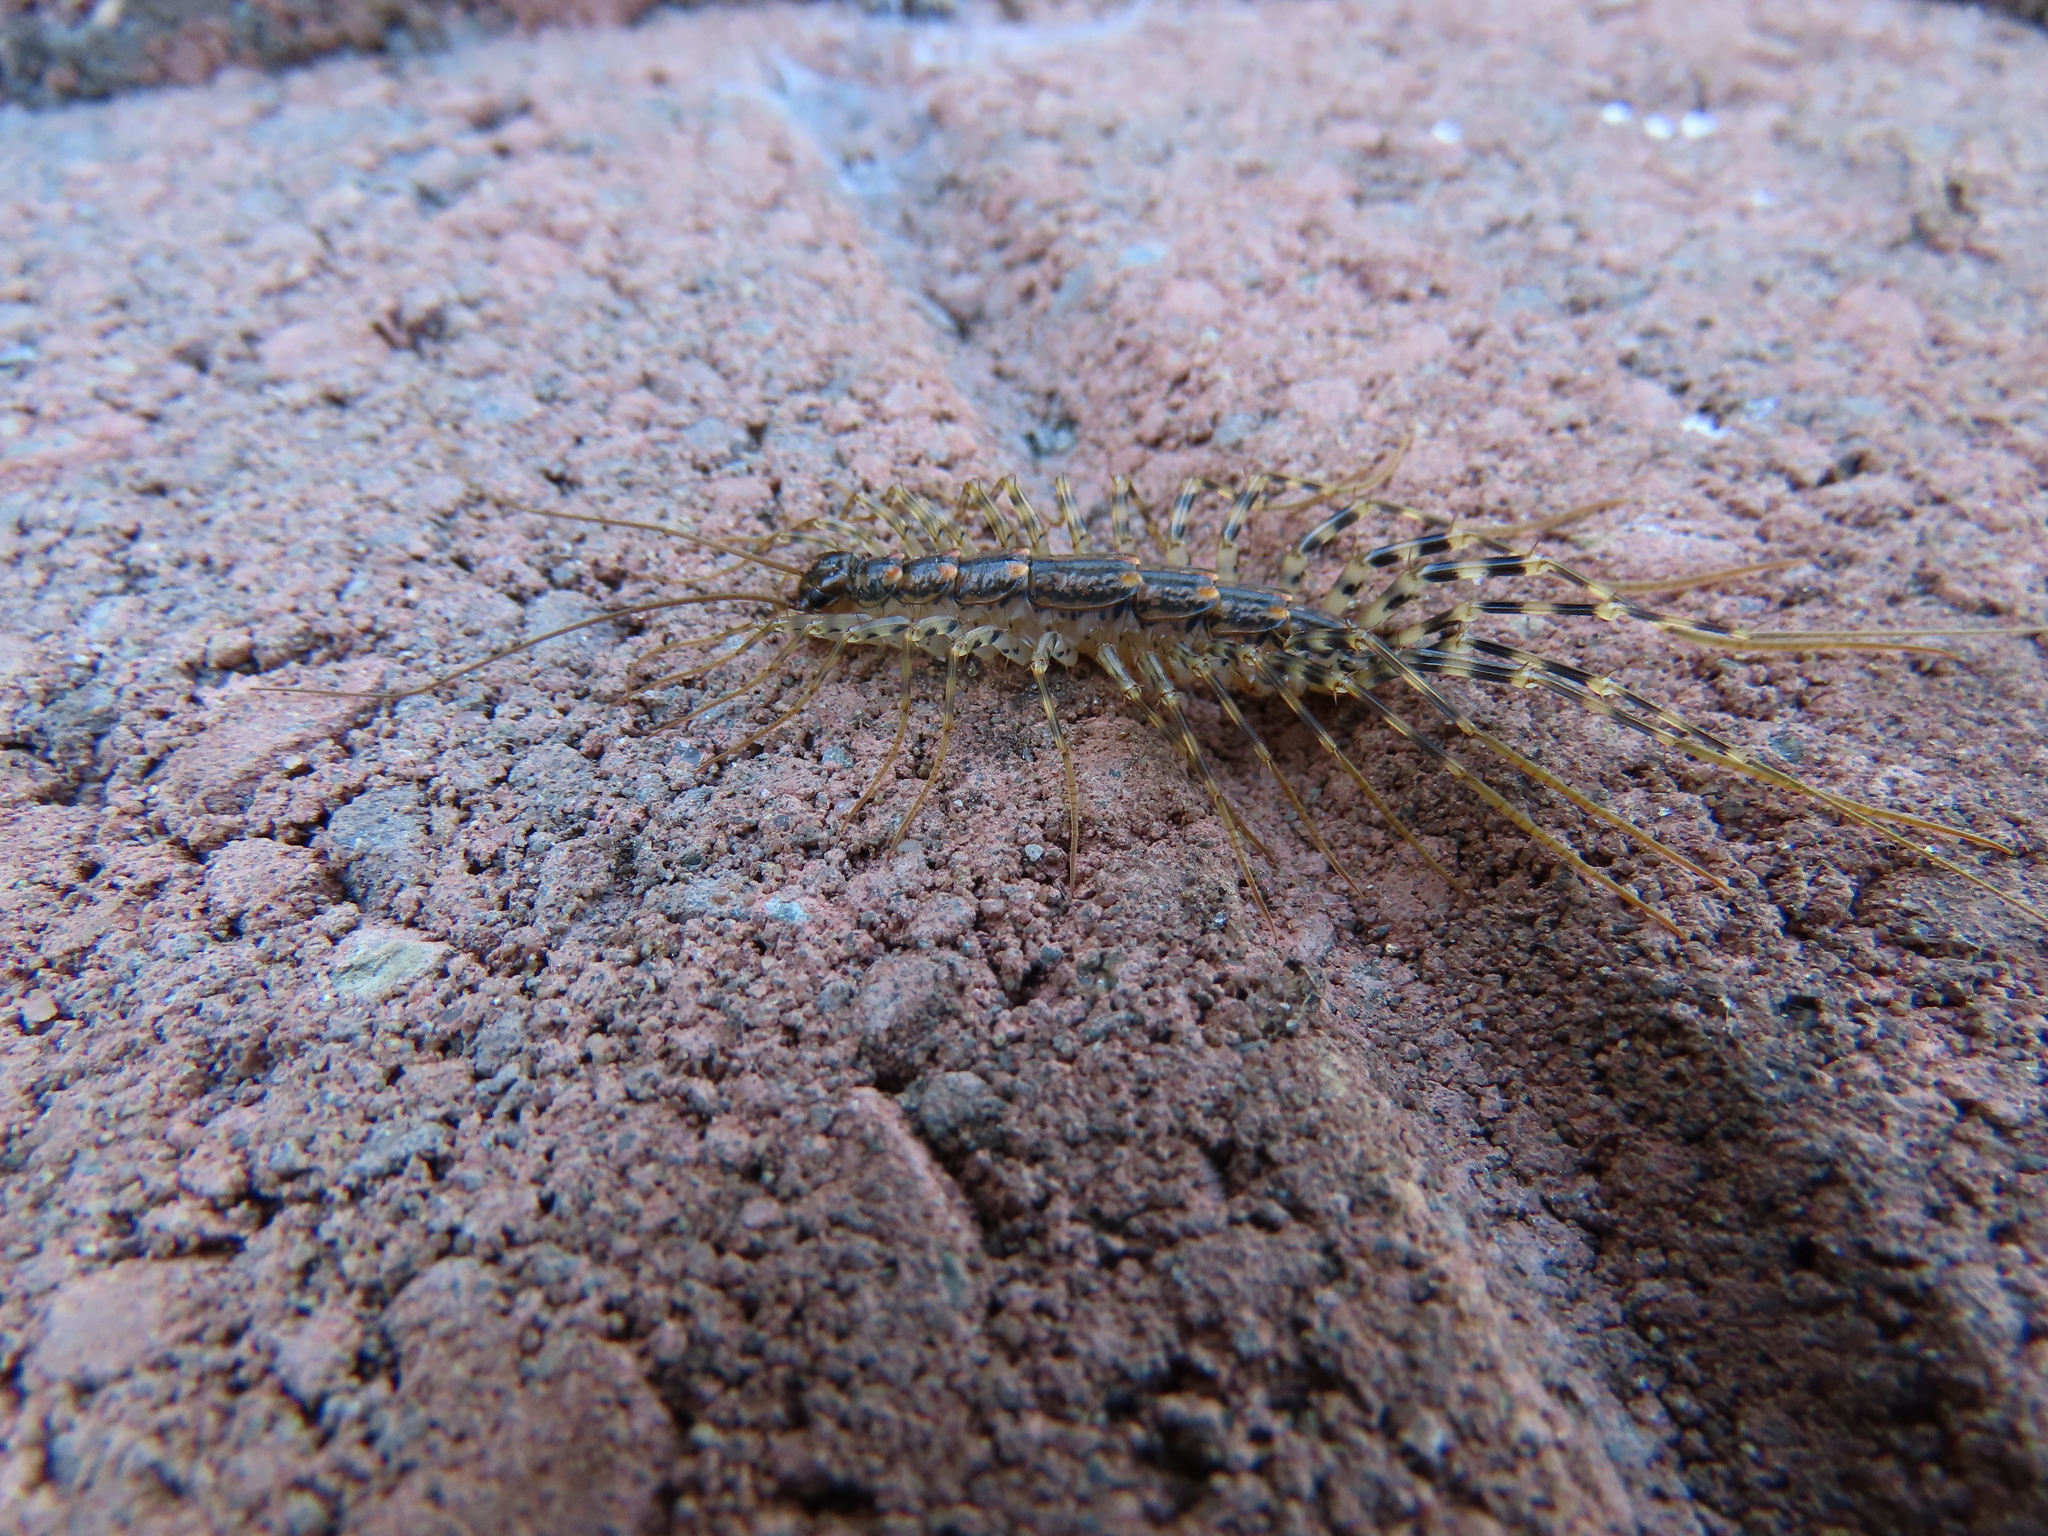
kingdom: Animalia
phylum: Arthropoda
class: Chilopoda
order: Scutigeromorpha
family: Scutigeridae
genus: Thereuonema
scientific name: Thereuonema tuberculata
